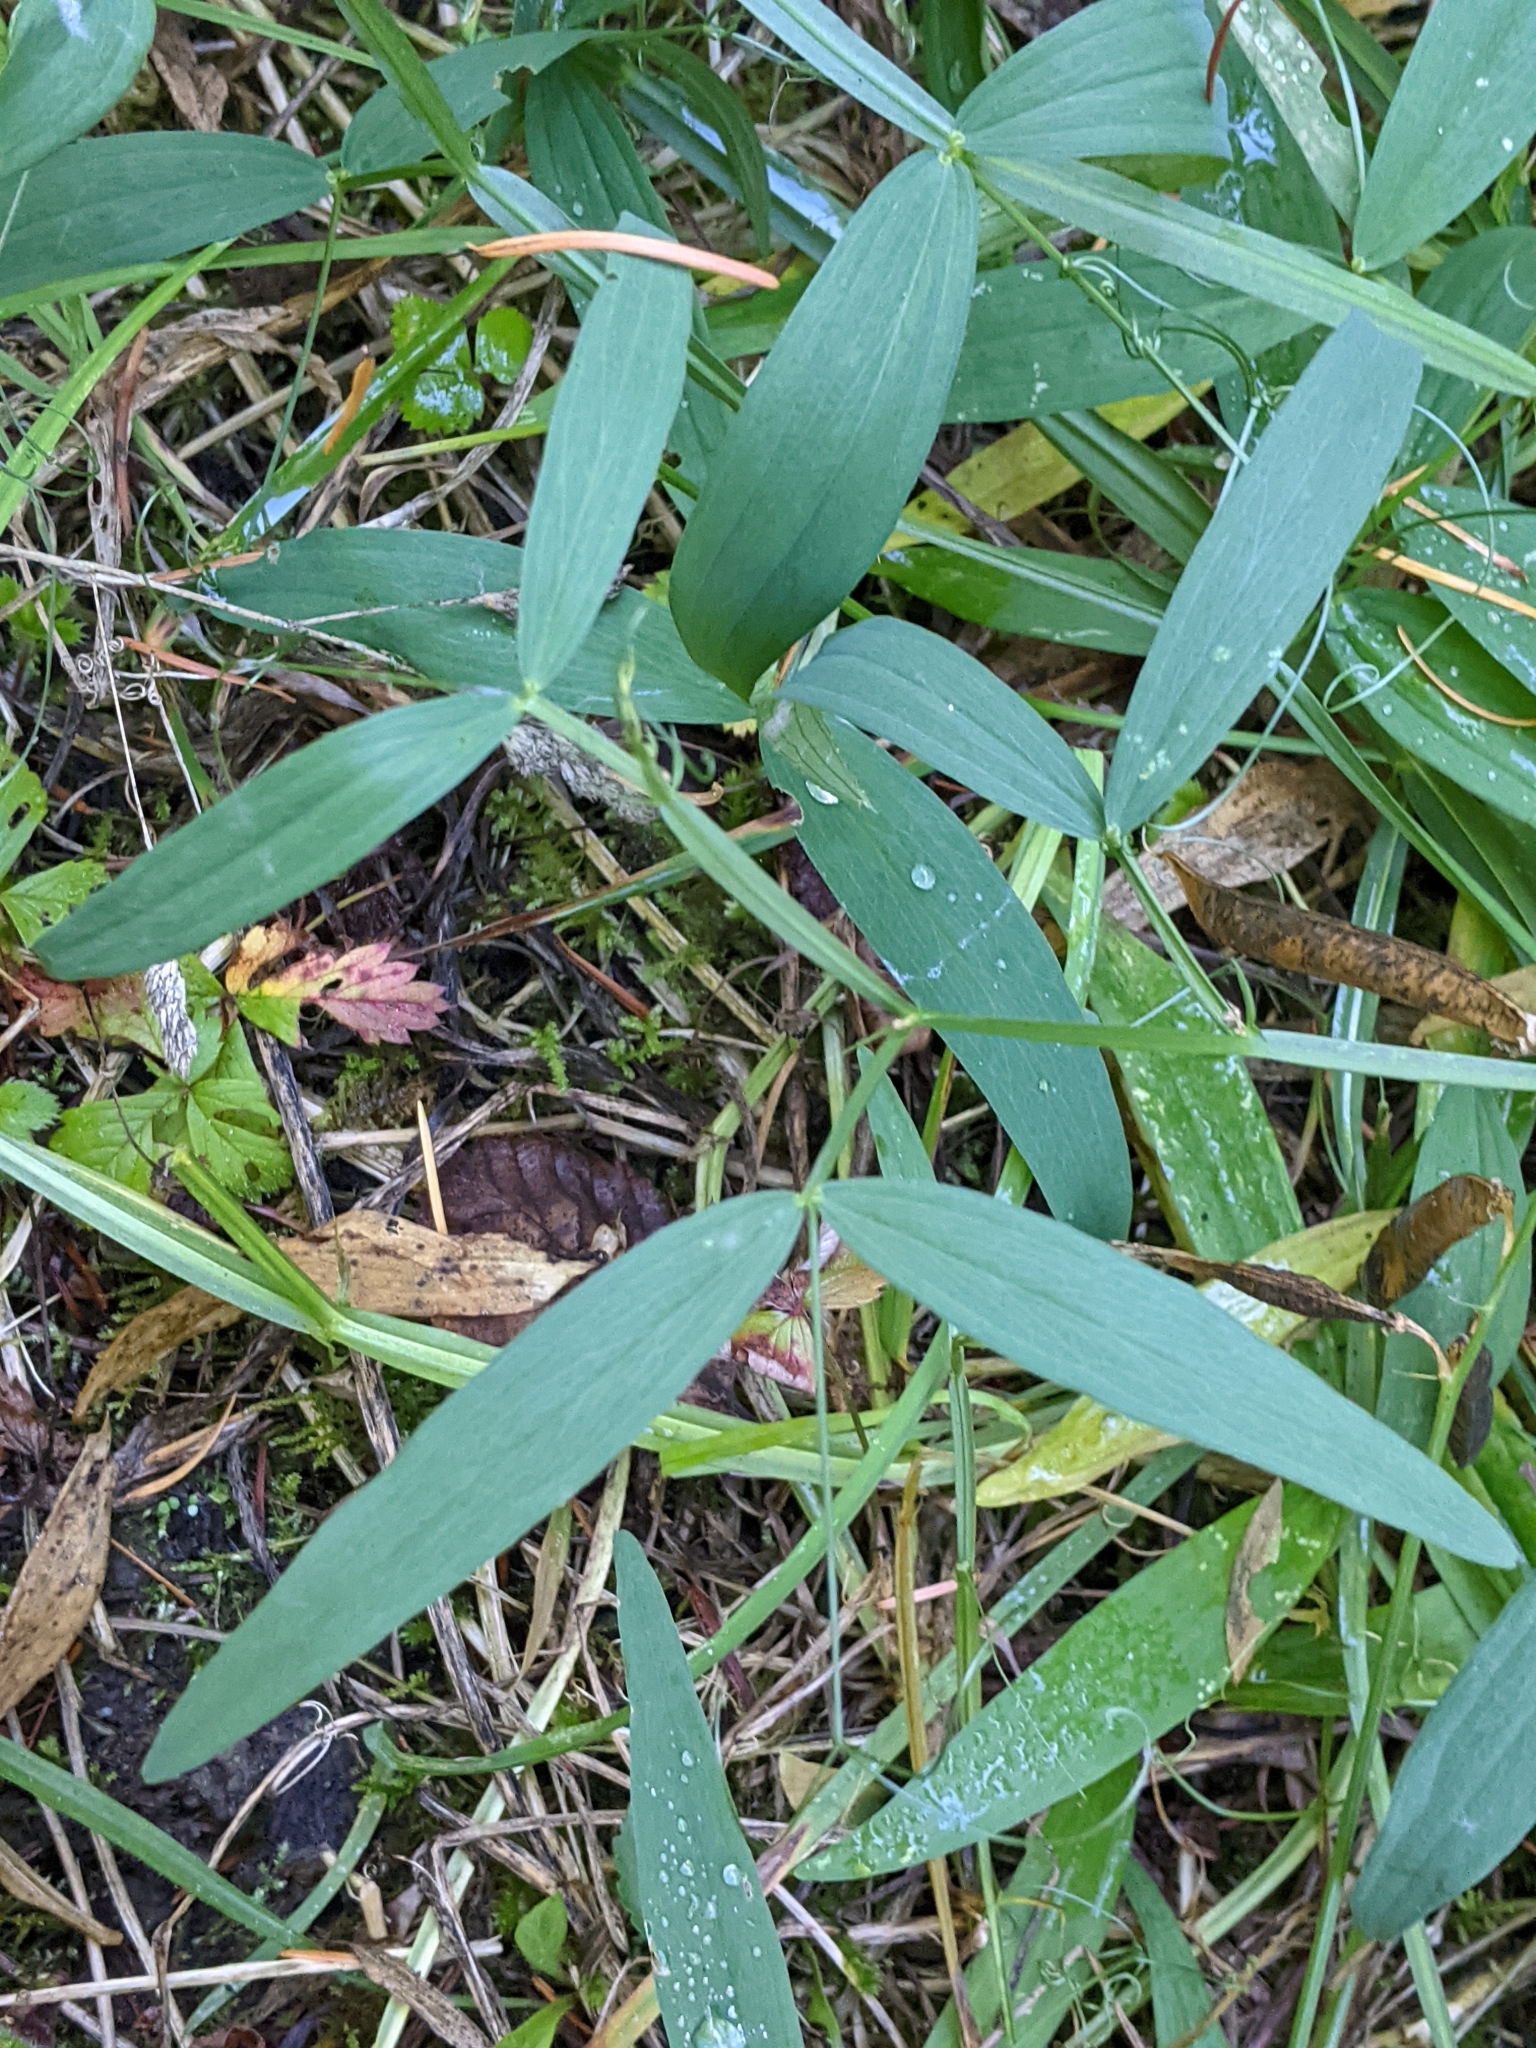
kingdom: Plantae
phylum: Tracheophyta
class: Magnoliopsida
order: Fabales
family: Fabaceae
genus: Lathyrus
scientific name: Lathyrus sylvestris
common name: Flat pea
